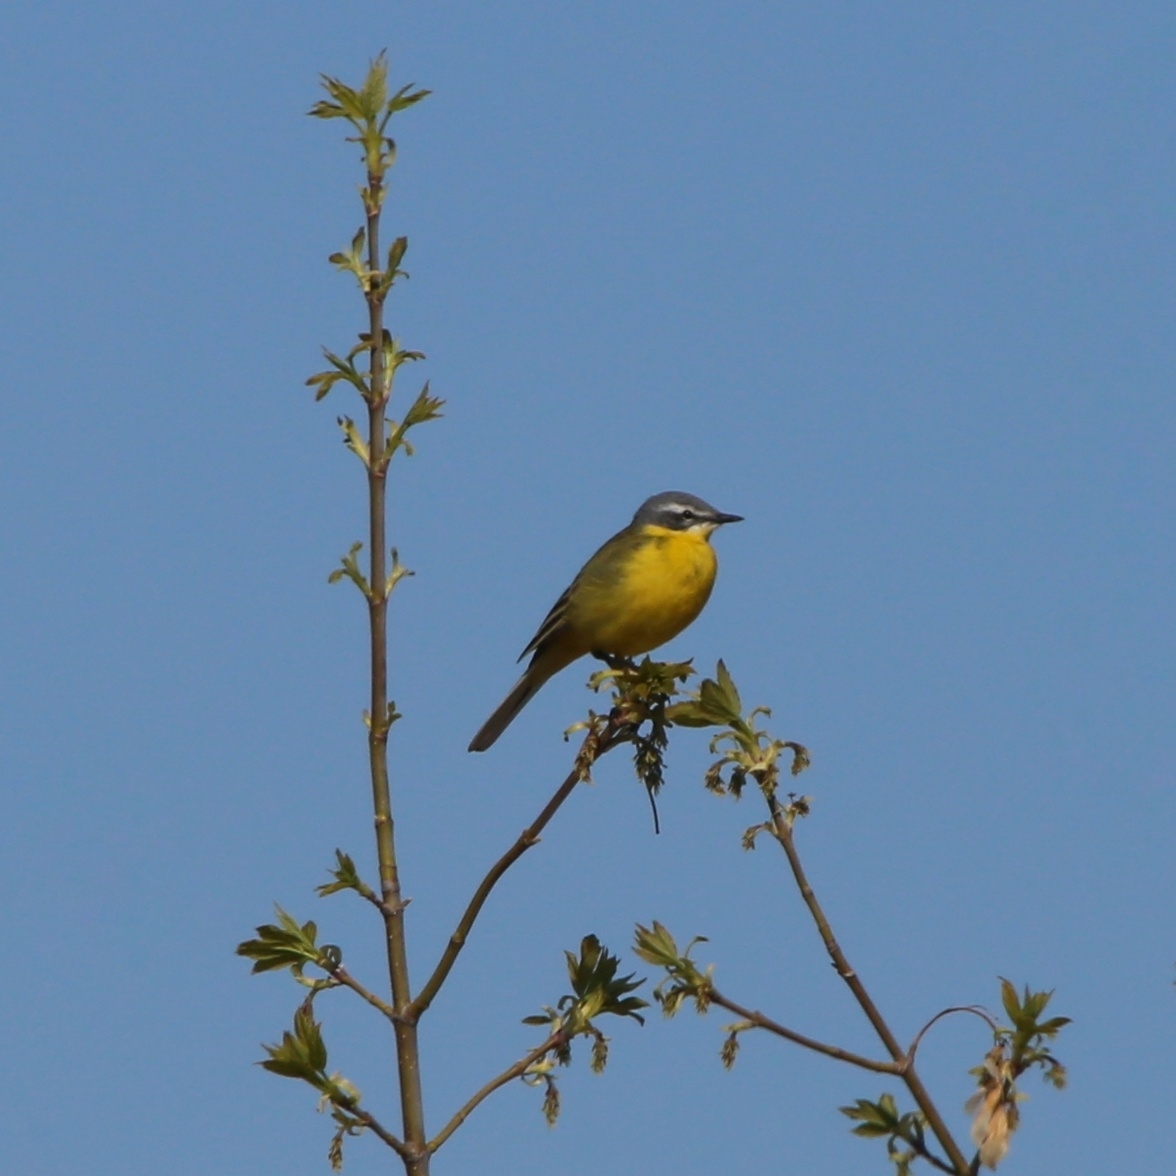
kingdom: Animalia
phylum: Chordata
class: Aves
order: Passeriformes
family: Motacillidae
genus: Motacilla
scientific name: Motacilla flava
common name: Western yellow wagtail
